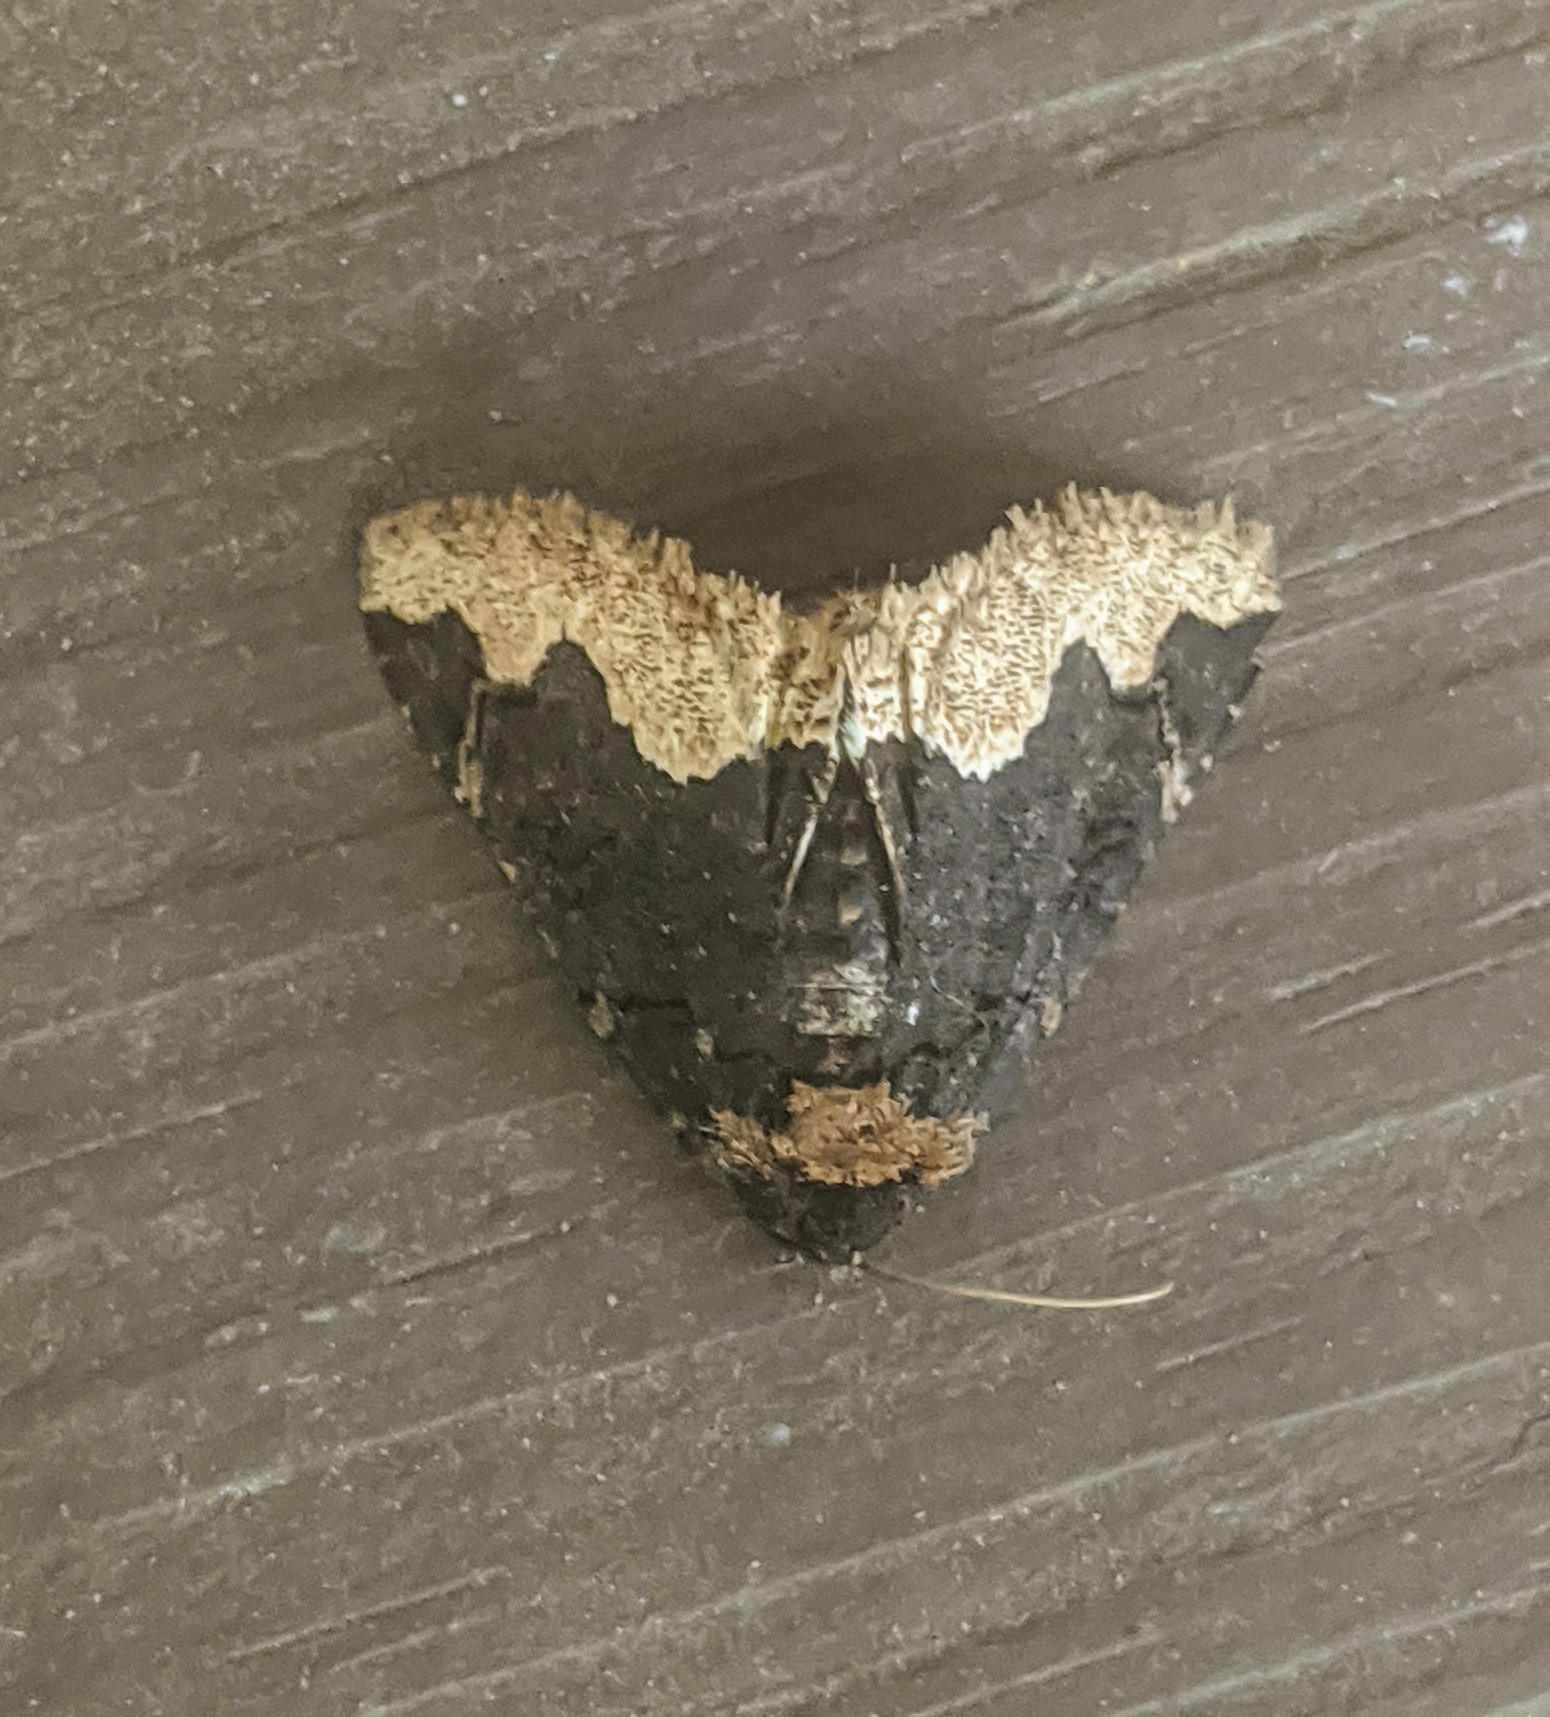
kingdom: Animalia
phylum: Arthropoda
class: Insecta
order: Lepidoptera
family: Erebidae
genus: Zale
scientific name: Zale horrida
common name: Horrid zale moth
